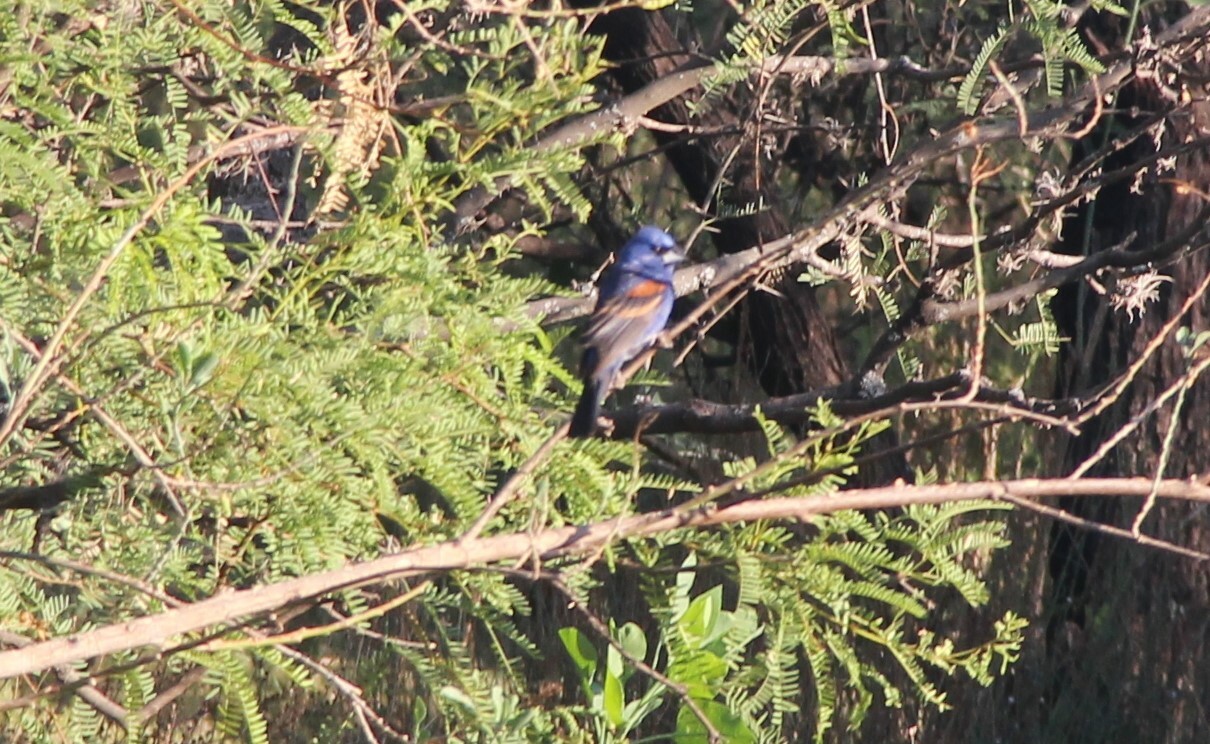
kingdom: Animalia
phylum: Chordata
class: Aves
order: Passeriformes
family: Cardinalidae
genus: Passerina
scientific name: Passerina caerulea
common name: Blue grosbeak
